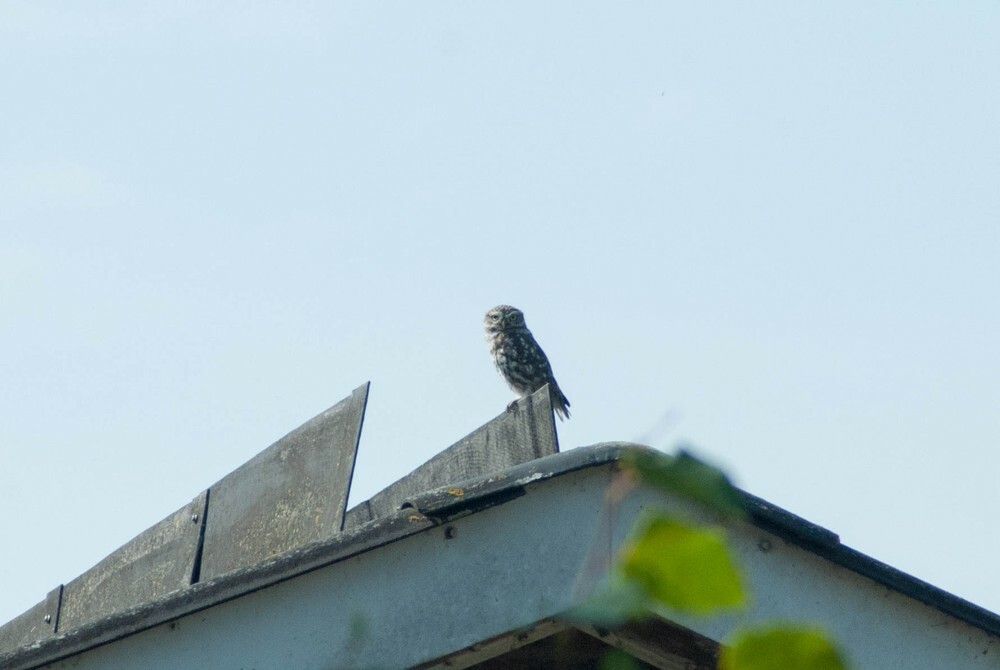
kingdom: Animalia
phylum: Chordata
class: Aves
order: Strigiformes
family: Strigidae
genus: Athene
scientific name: Athene noctua
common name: Little owl
